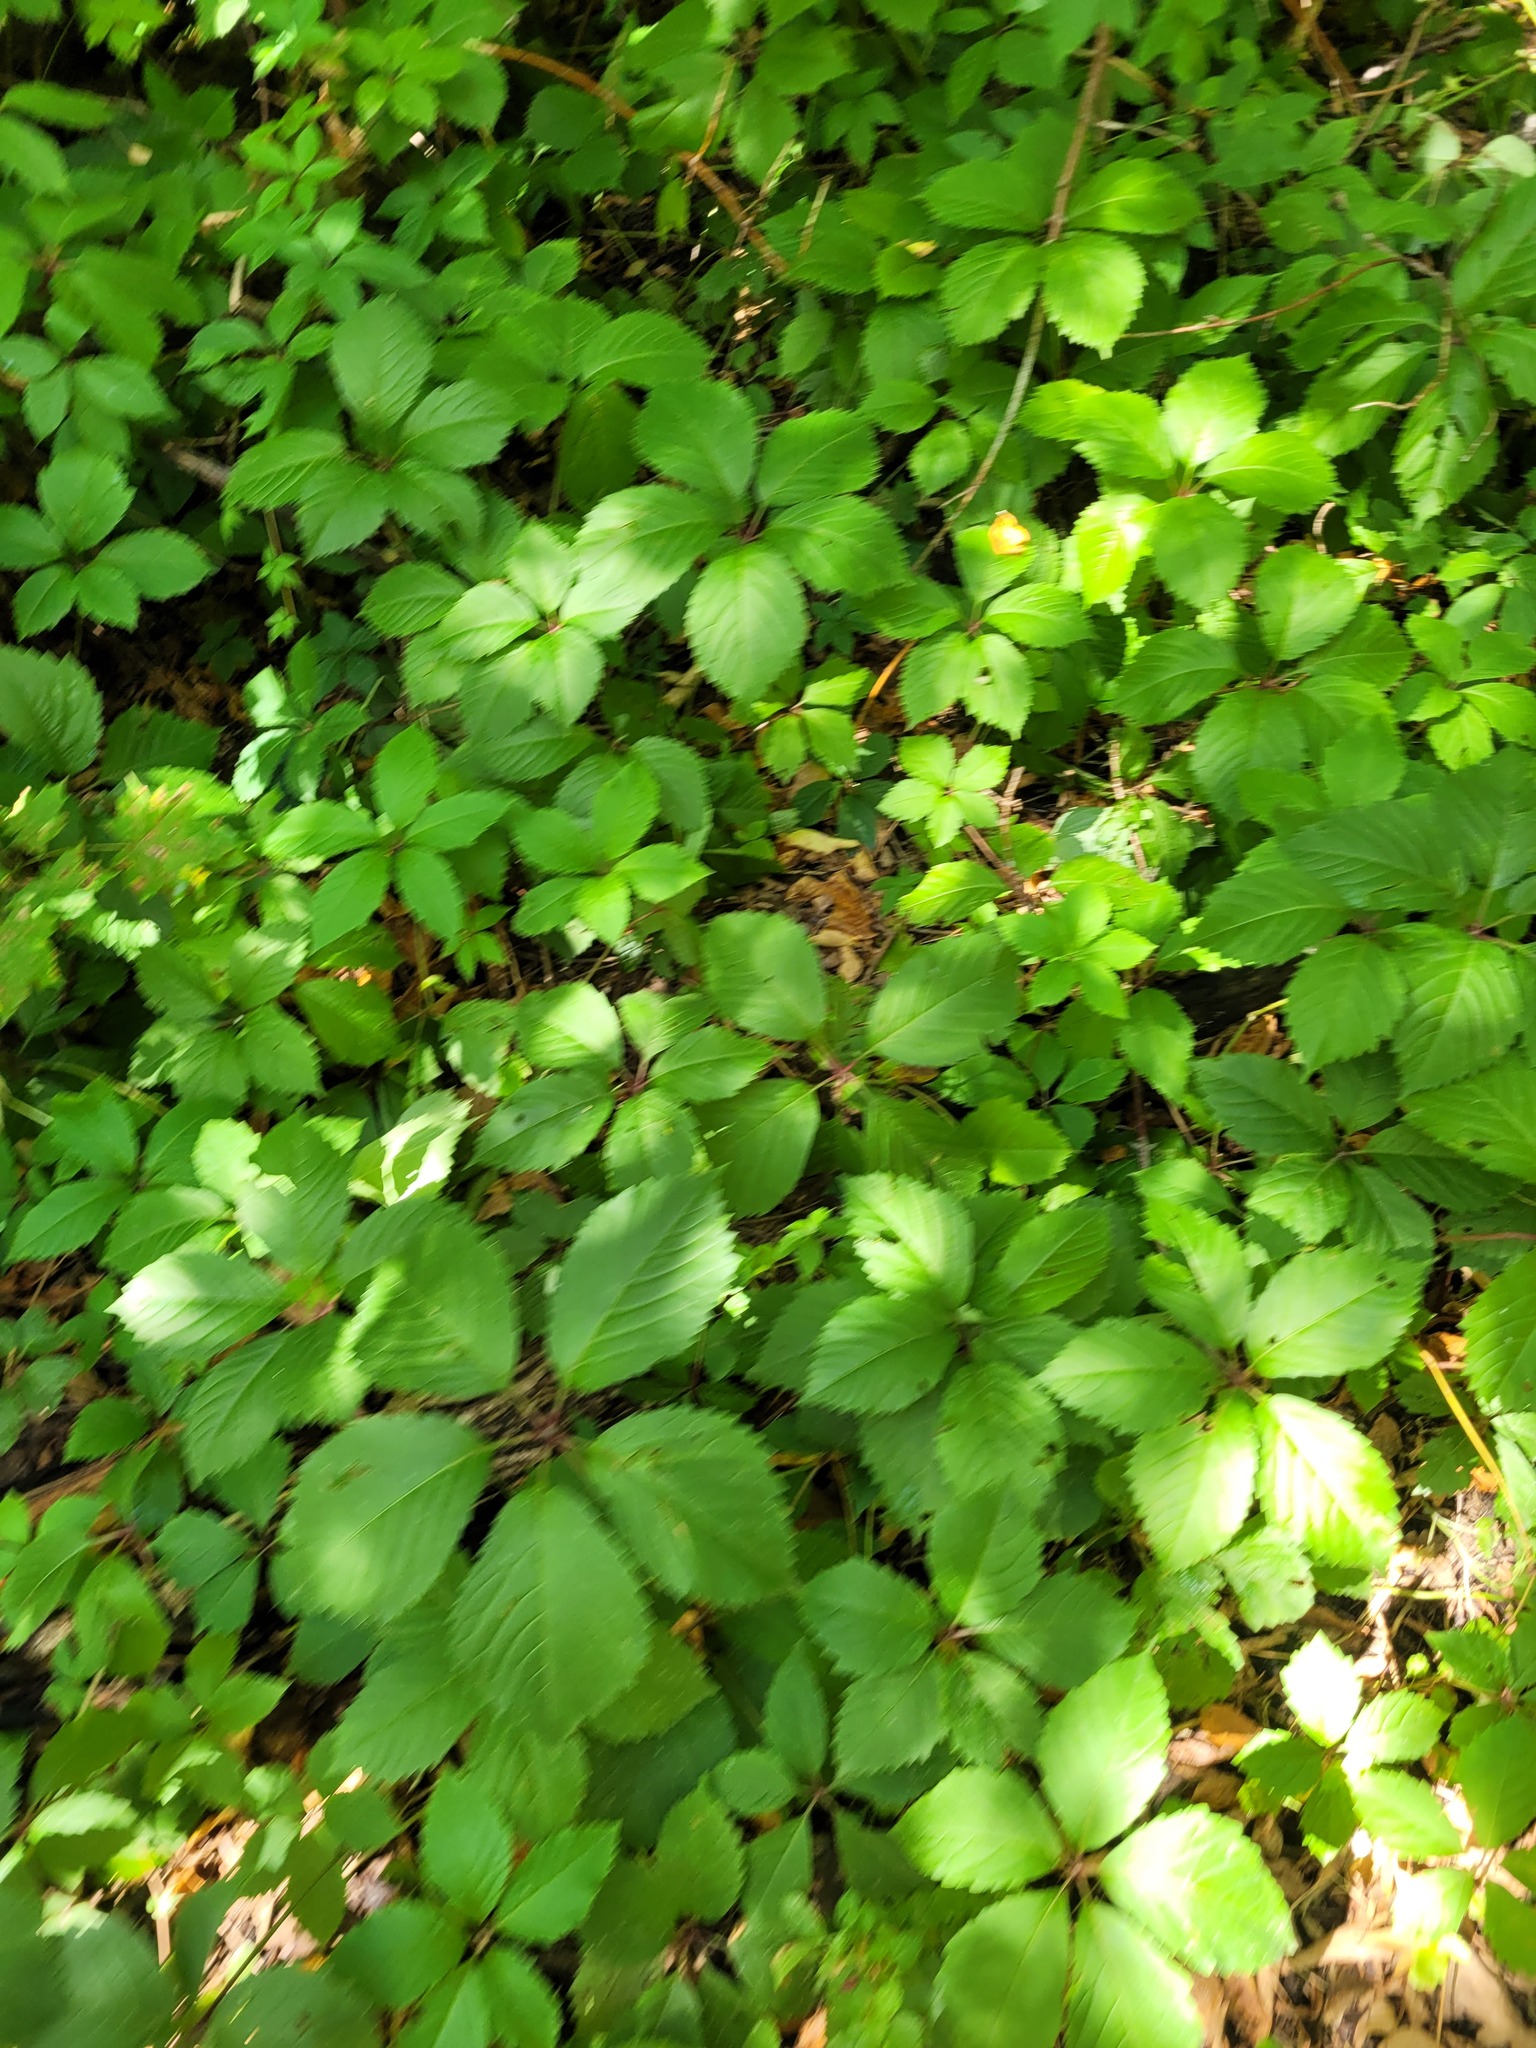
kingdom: Plantae
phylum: Tracheophyta
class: Magnoliopsida
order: Vitales
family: Vitaceae
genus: Parthenocissus
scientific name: Parthenocissus inserta
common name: False virginia-creeper
